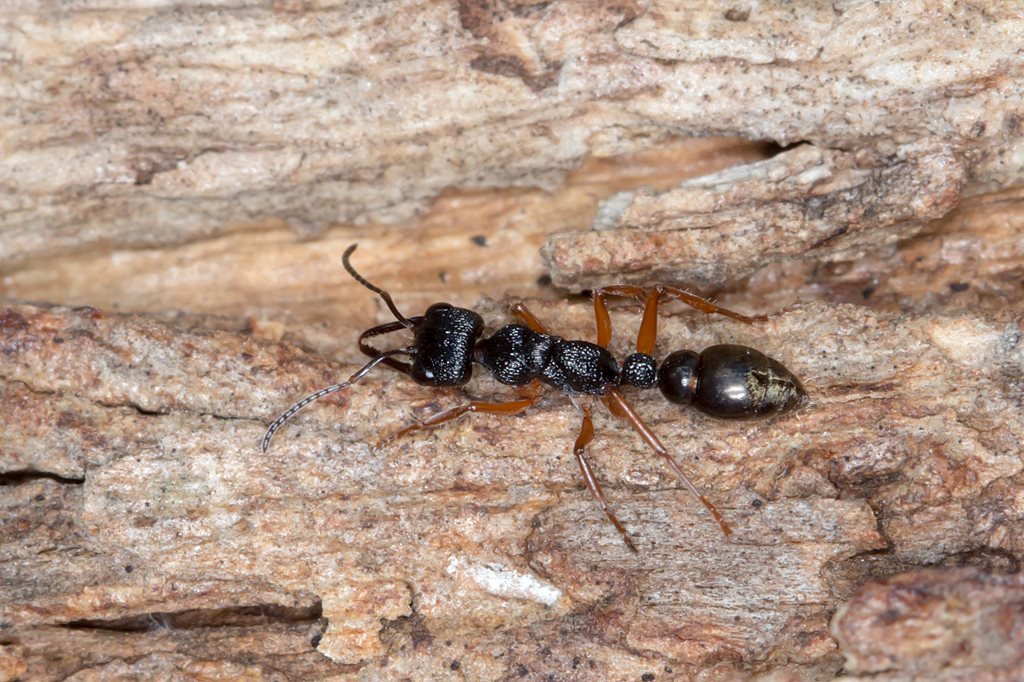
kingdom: Animalia
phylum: Arthropoda
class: Insecta
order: Hymenoptera
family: Formicidae
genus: Myrmecia
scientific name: Myrmecia fulvipes
